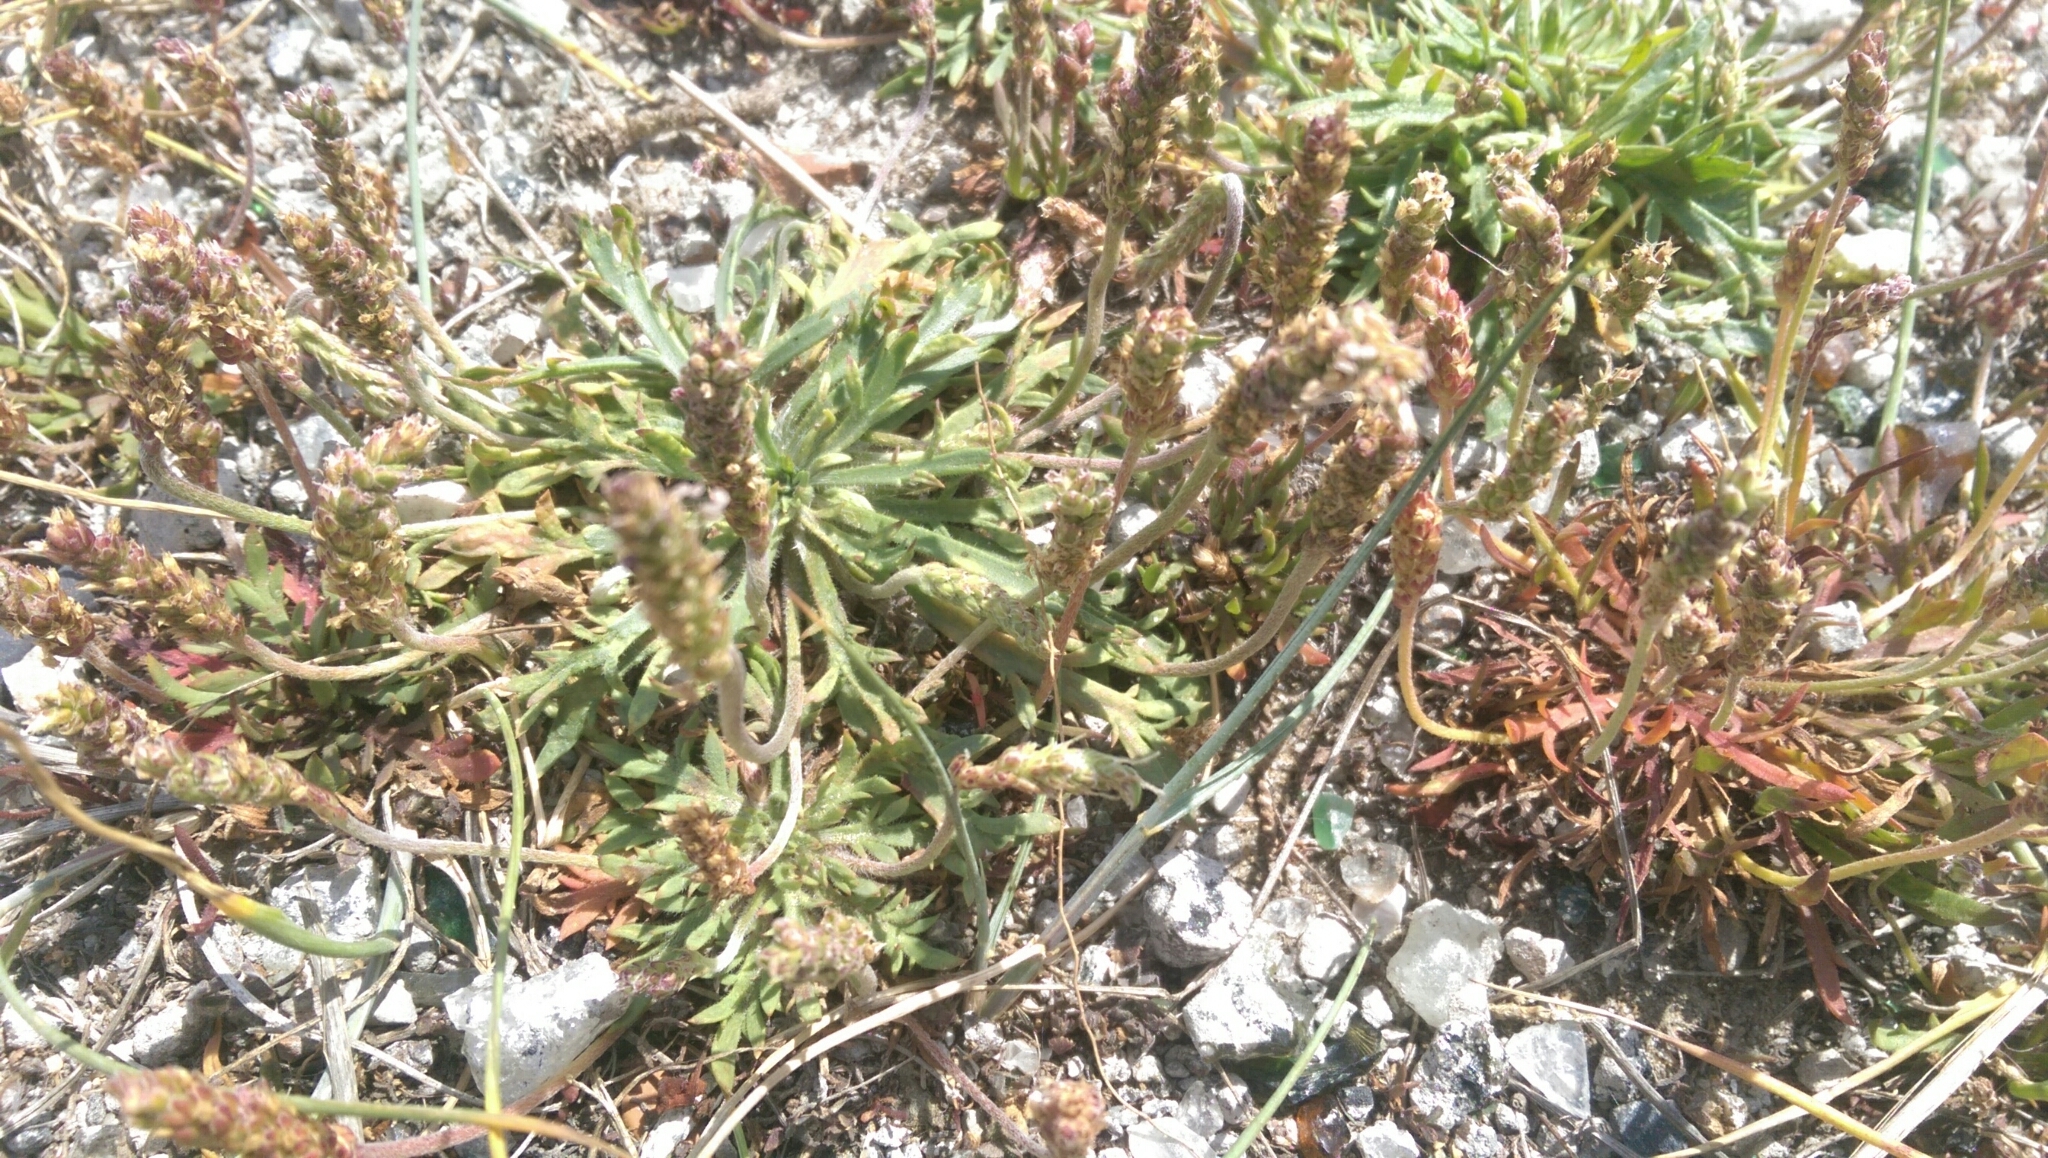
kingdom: Plantae
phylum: Tracheophyta
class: Magnoliopsida
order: Lamiales
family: Plantaginaceae
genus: Plantago
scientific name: Plantago coronopus
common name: Buck's-horn plantain
